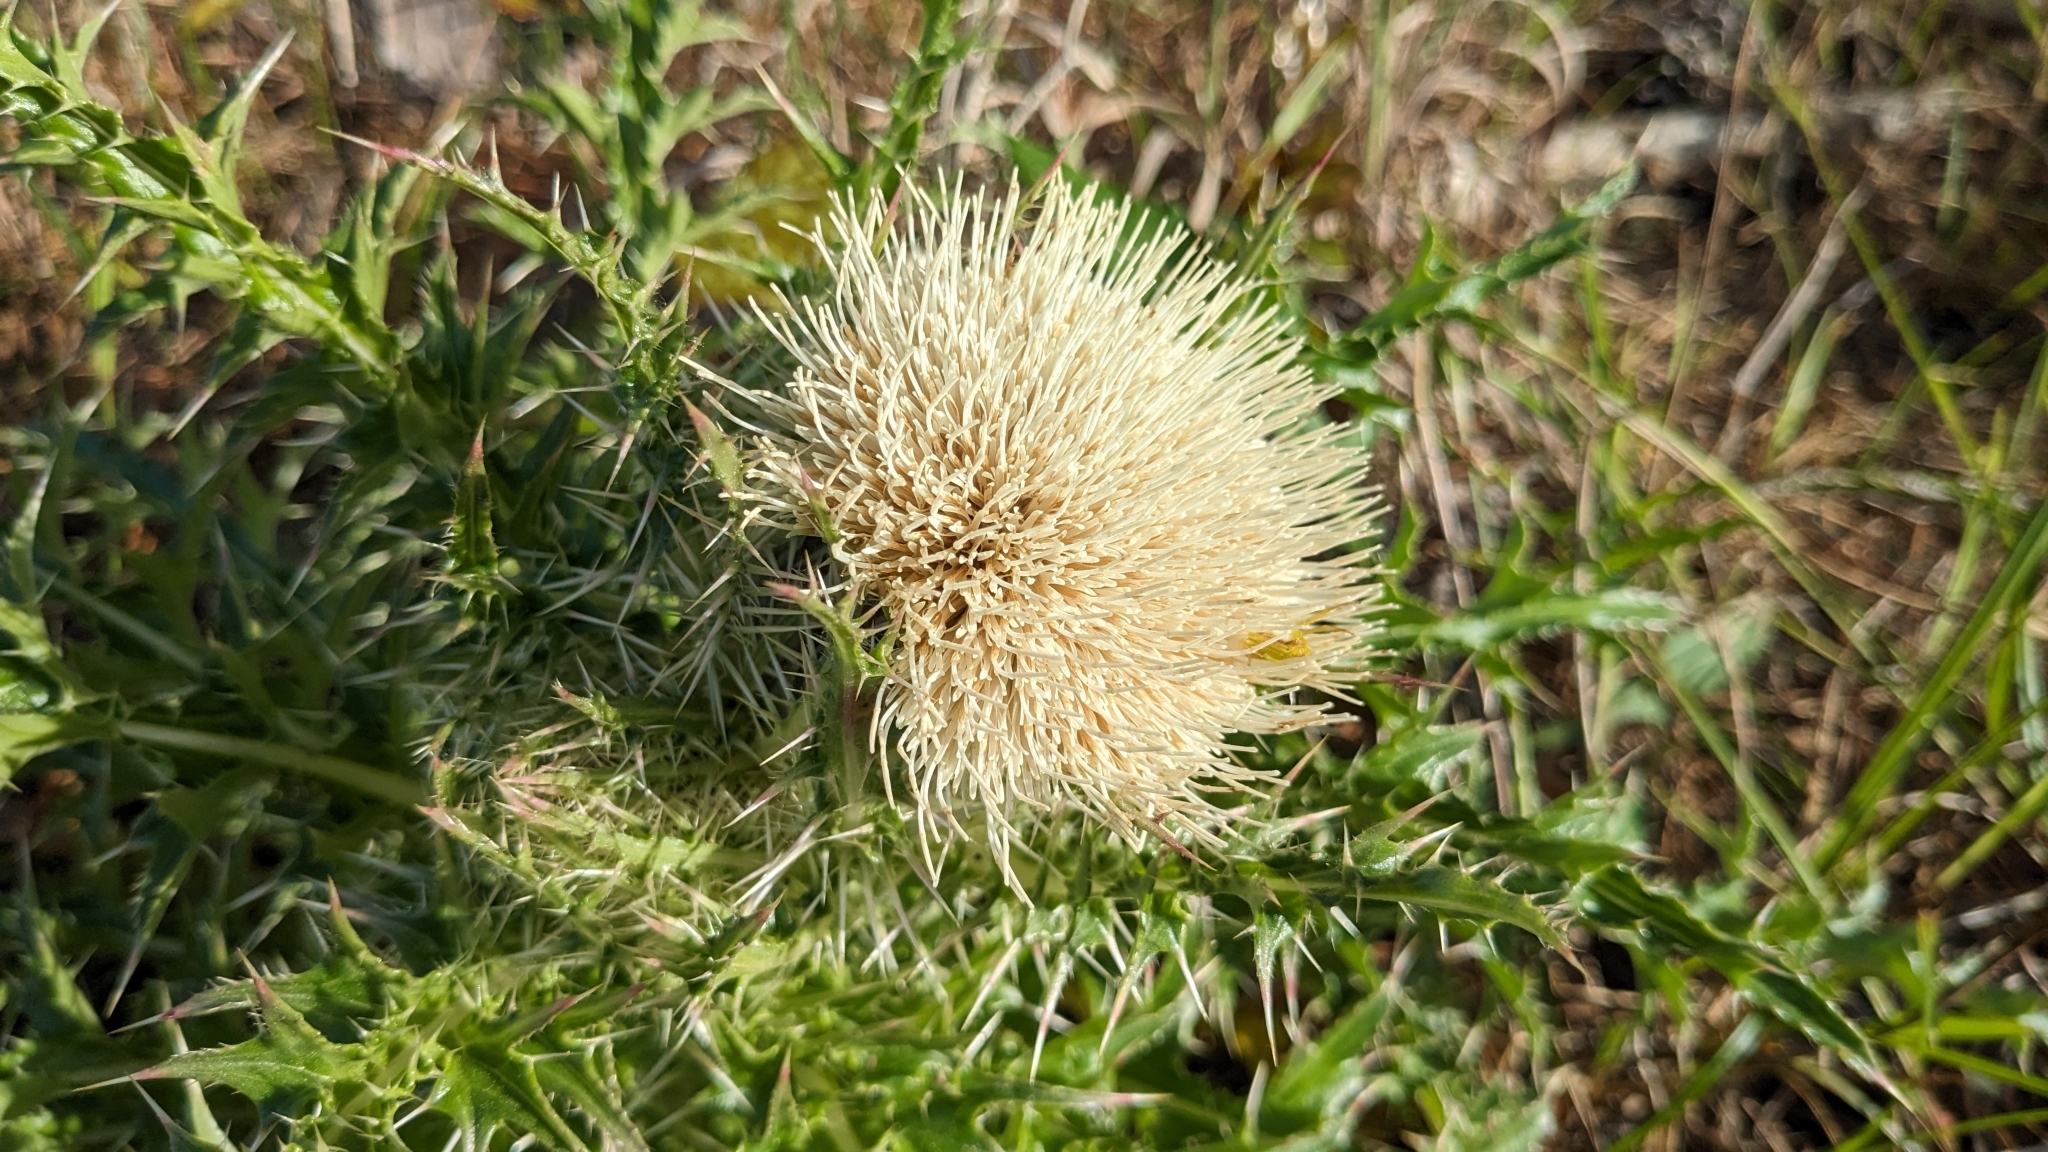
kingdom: Plantae
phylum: Tracheophyta
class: Magnoliopsida
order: Asterales
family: Asteraceae
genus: Cirsium
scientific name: Cirsium horridulum
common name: Bristly thistle
